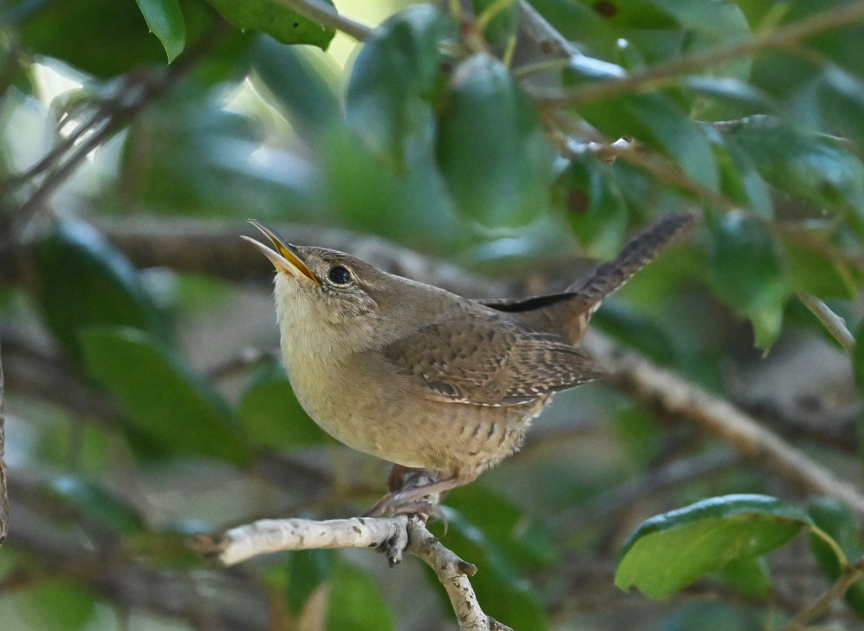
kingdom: Animalia
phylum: Chordata
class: Aves
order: Passeriformes
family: Troglodytidae
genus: Troglodytes
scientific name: Troglodytes aedon
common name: House wren
